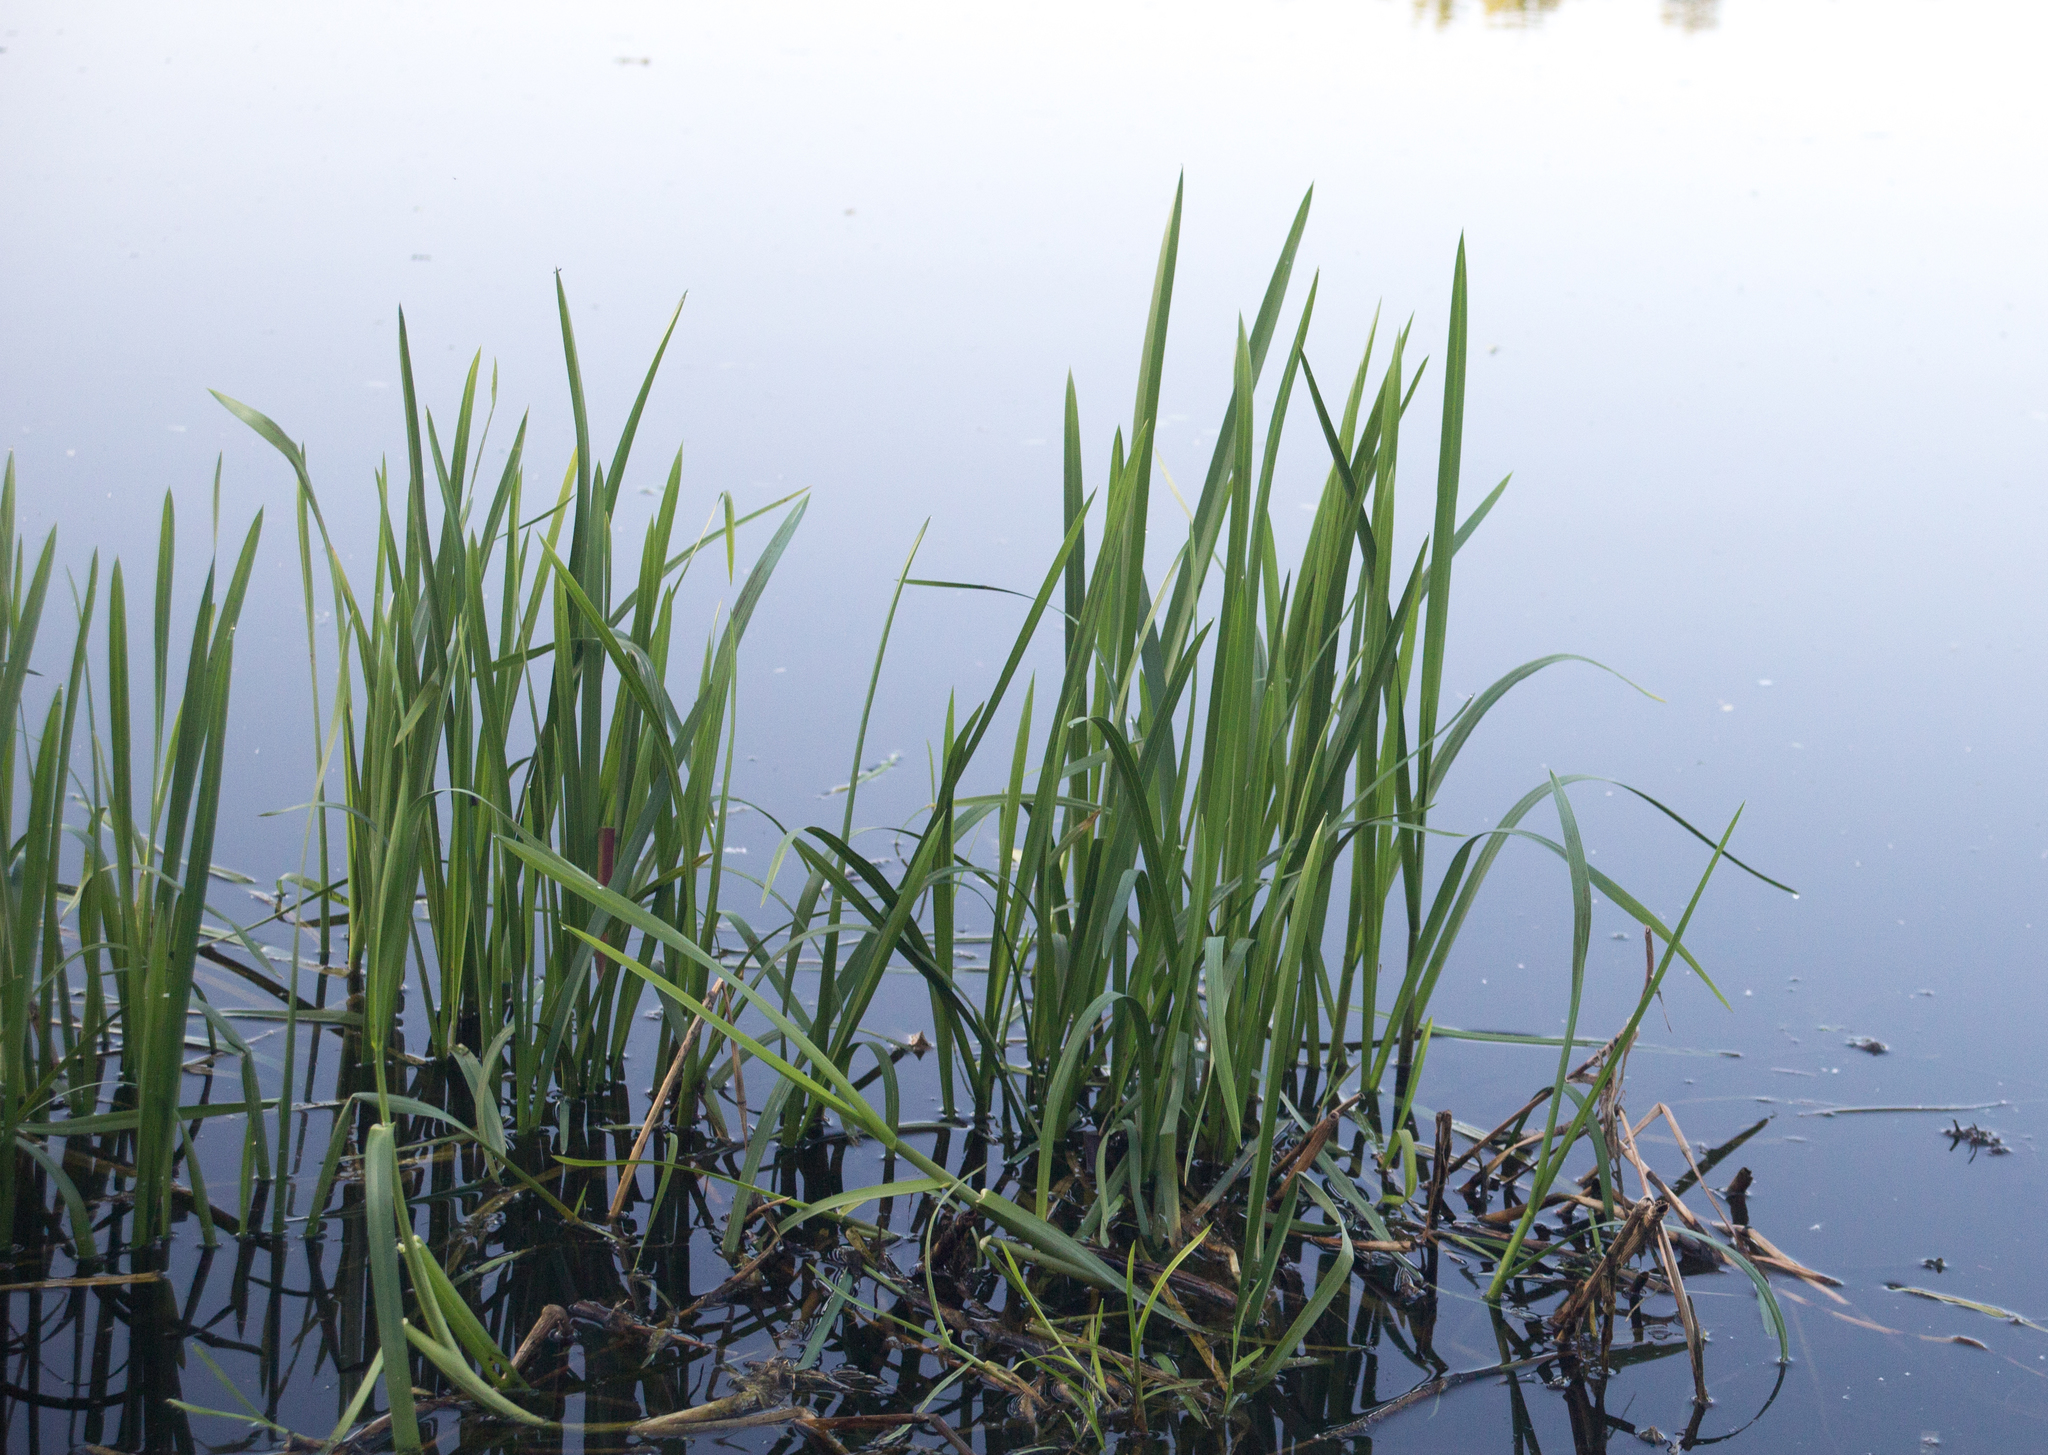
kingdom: Plantae
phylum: Tracheophyta
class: Liliopsida
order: Poales
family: Poaceae
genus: Glyceria
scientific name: Glyceria maxima
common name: Reed mannagrass
